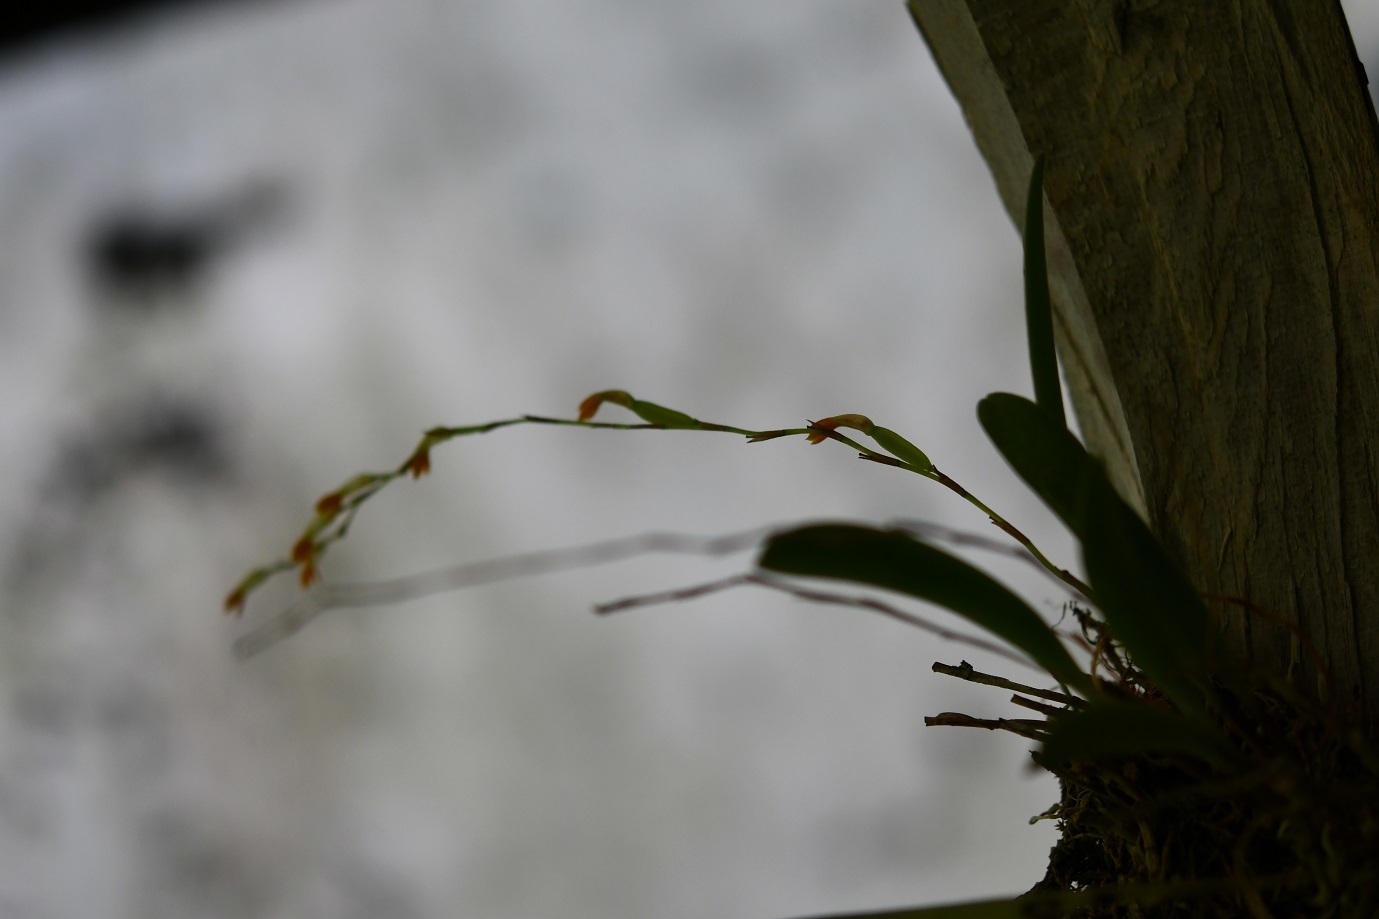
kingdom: Plantae
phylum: Tracheophyta
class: Liliopsida
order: Asparagales
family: Orchidaceae
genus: Stelis
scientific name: Stelis emarginata
